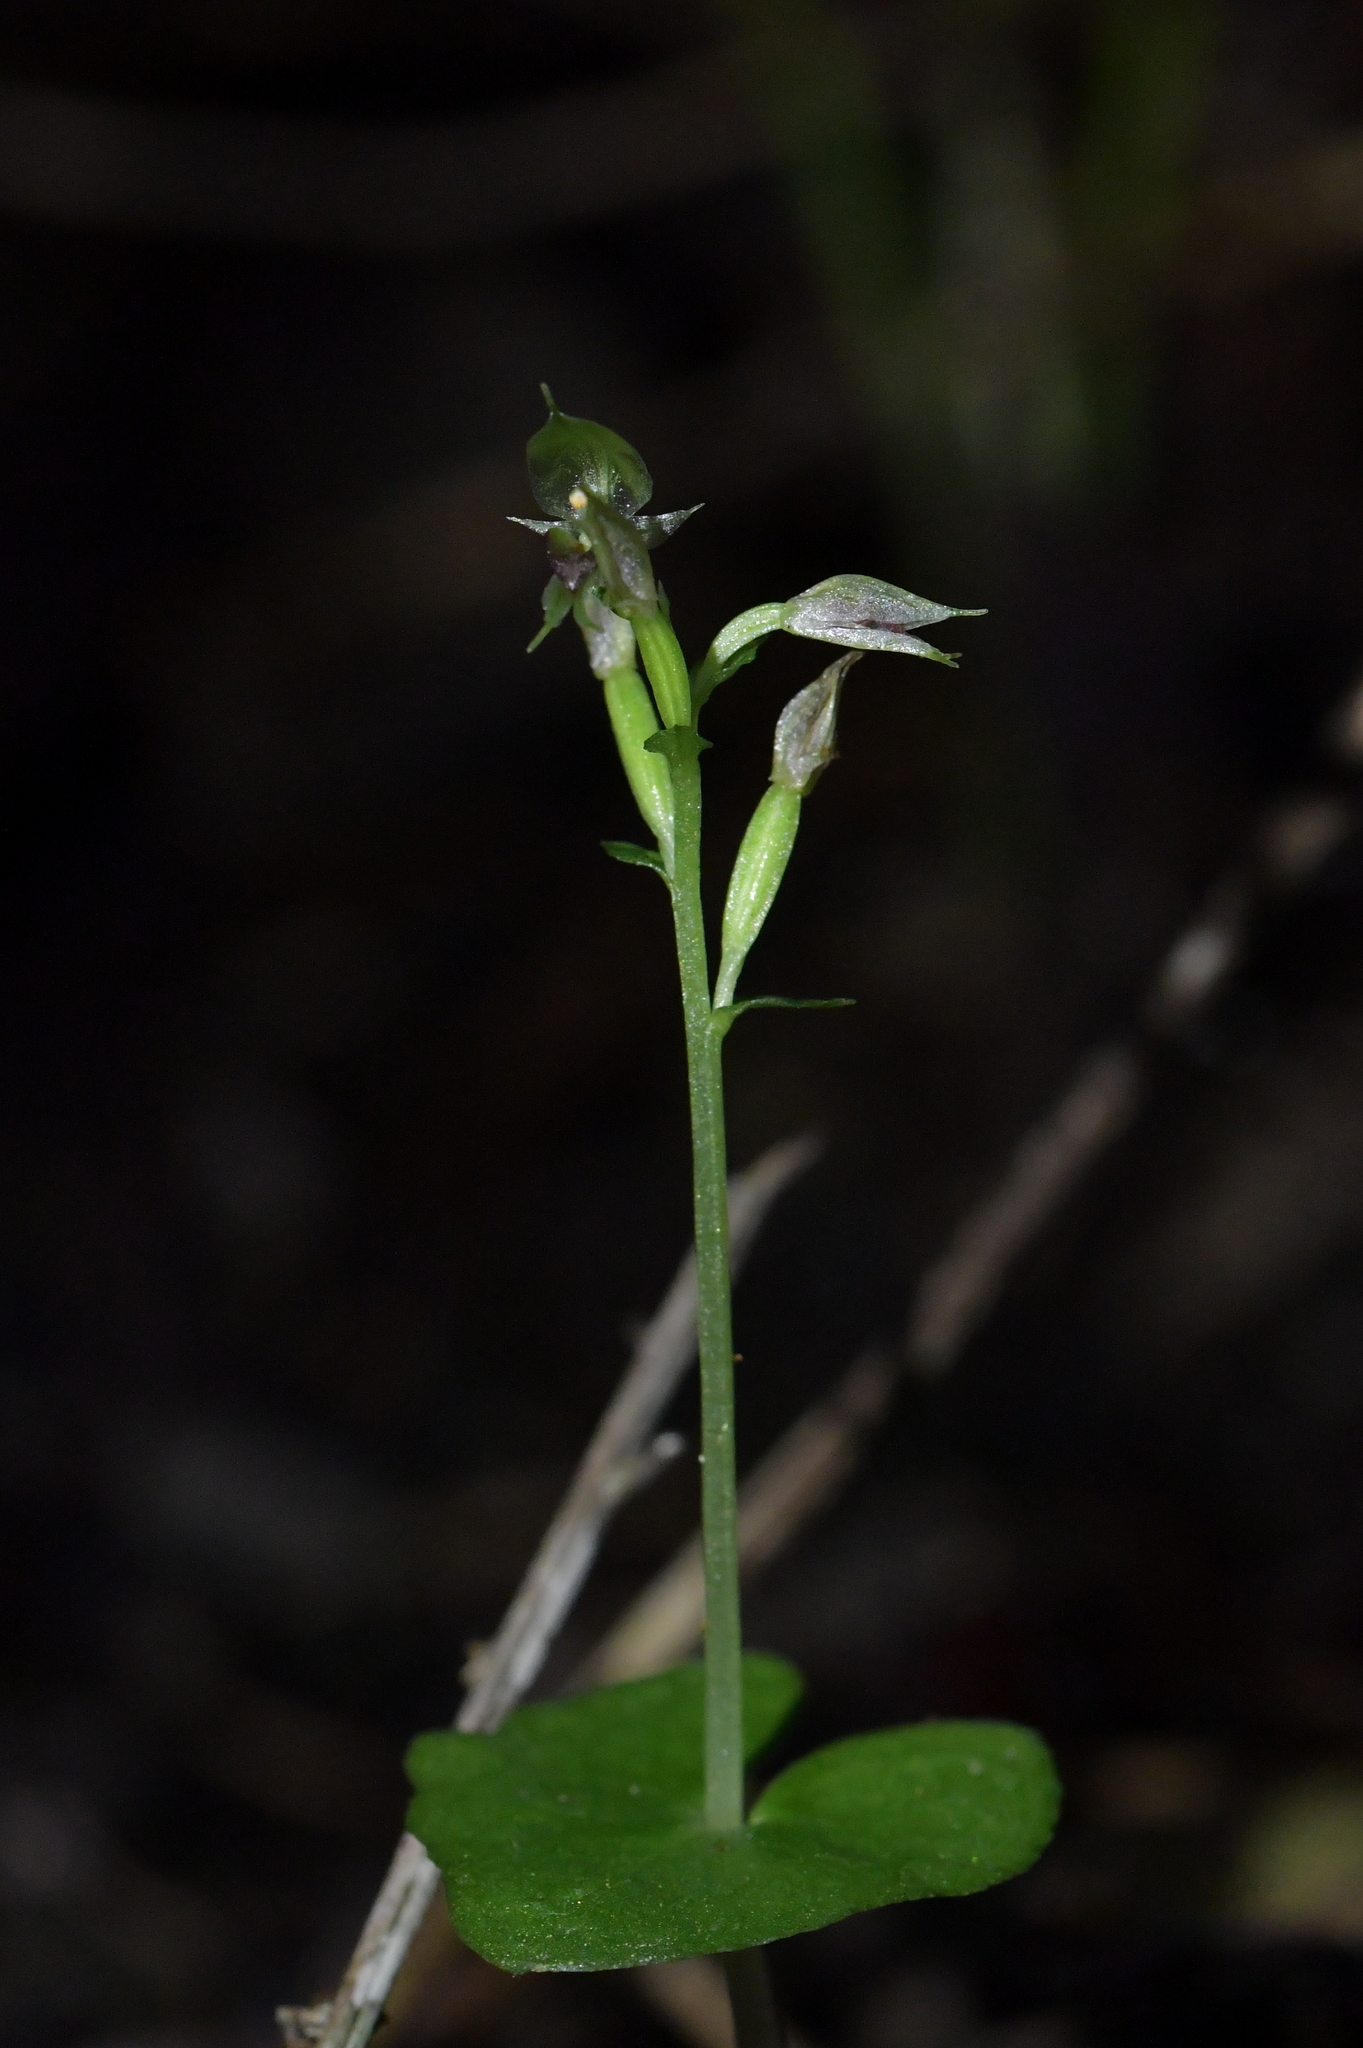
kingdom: Plantae
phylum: Tracheophyta
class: Liliopsida
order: Asparagales
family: Orchidaceae
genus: Acianthus
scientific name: Acianthus sinclairii
